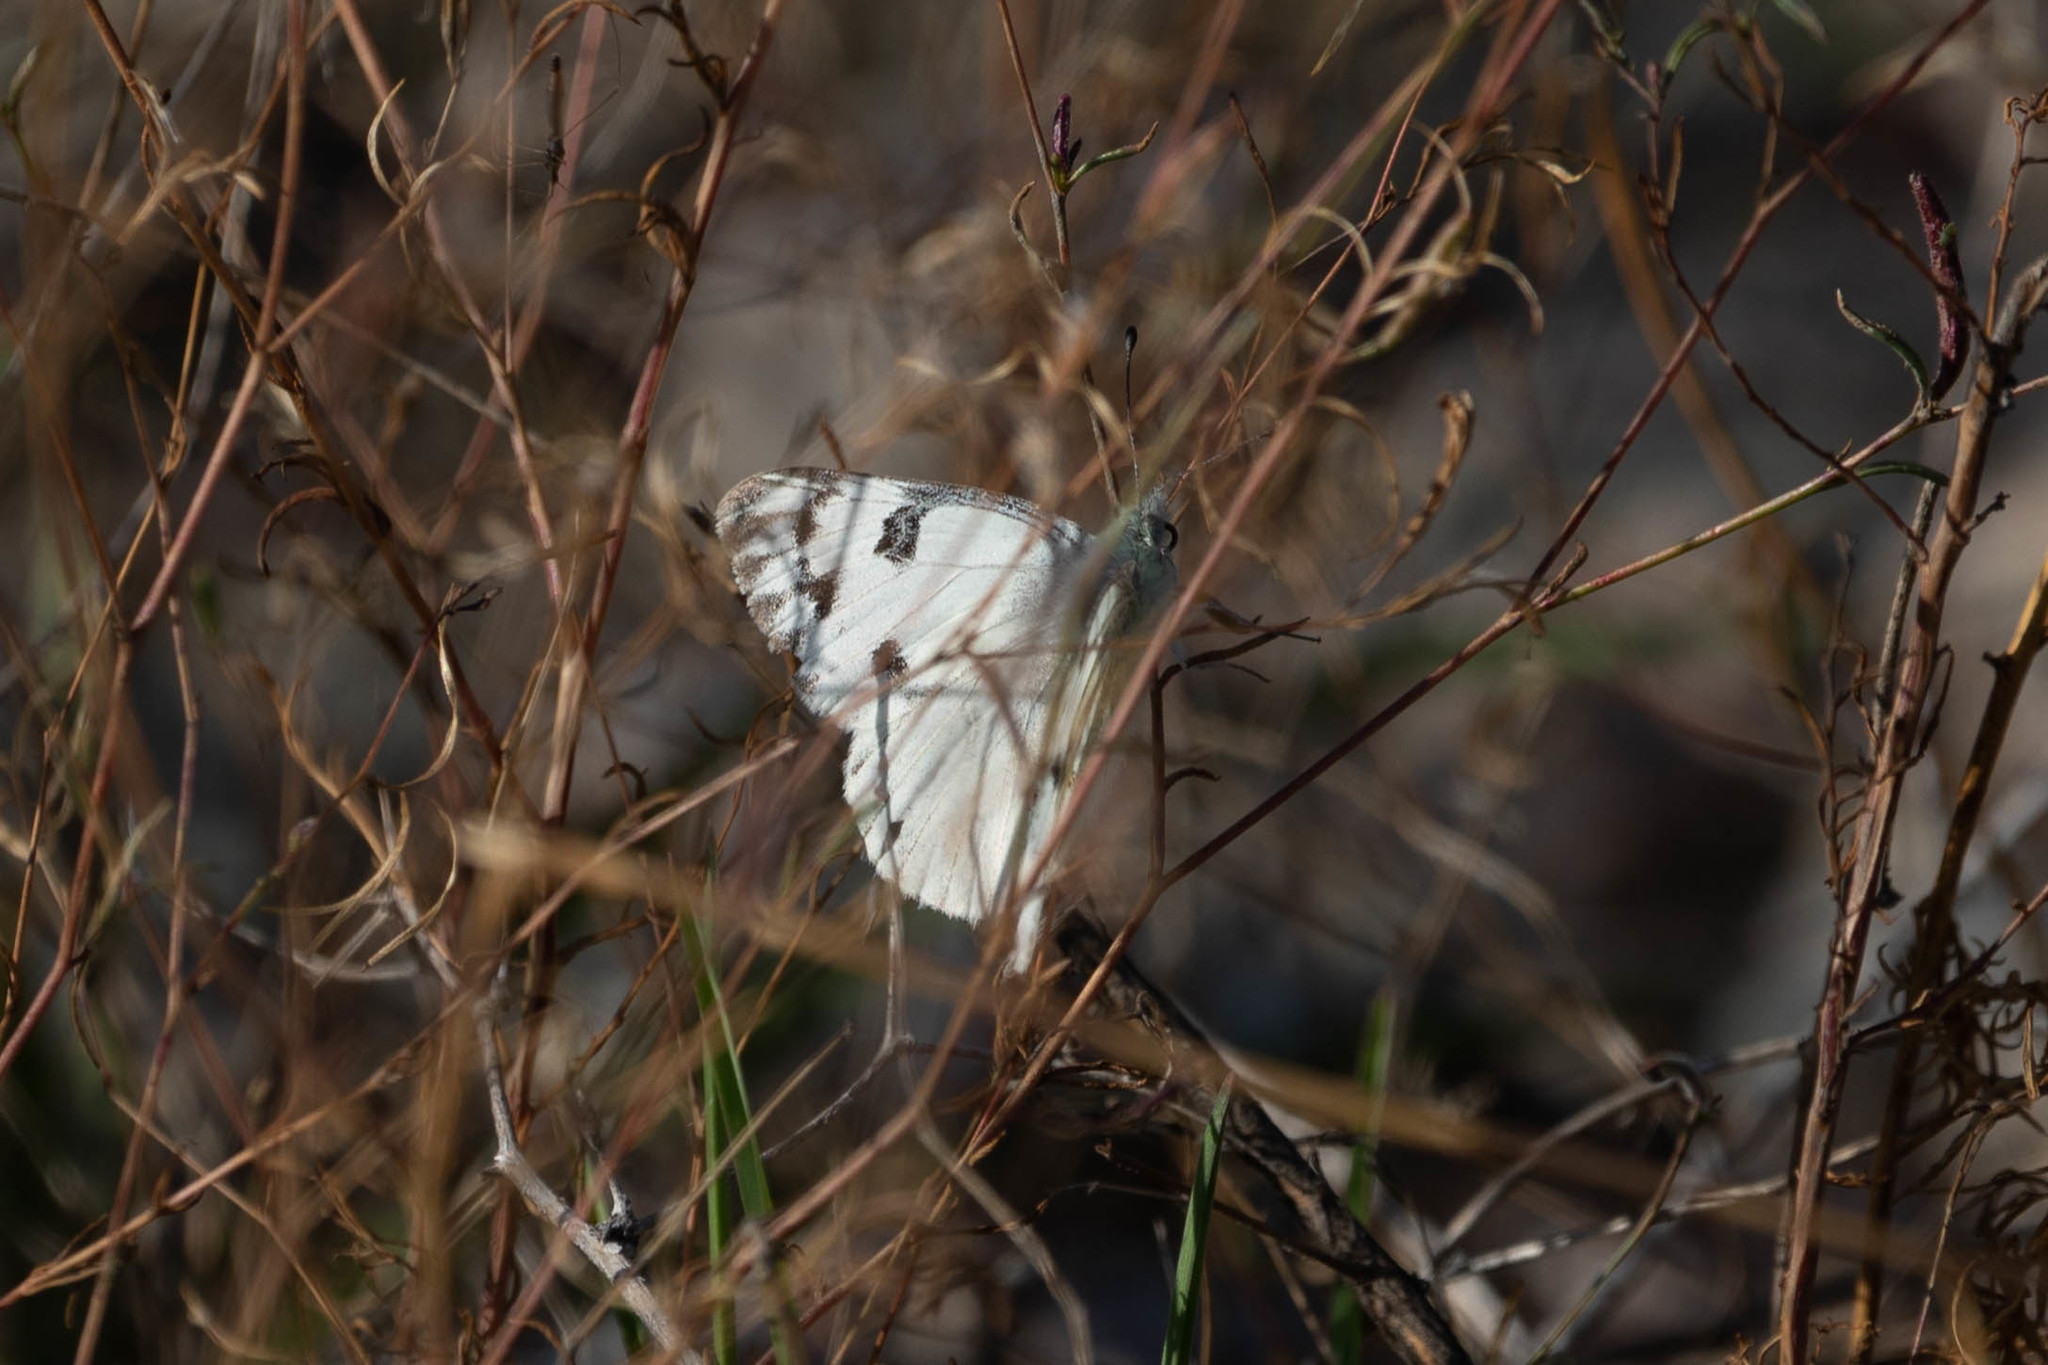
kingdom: Animalia
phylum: Arthropoda
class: Insecta
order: Lepidoptera
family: Pieridae
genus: Pontia
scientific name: Pontia occidentalis
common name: Western white
